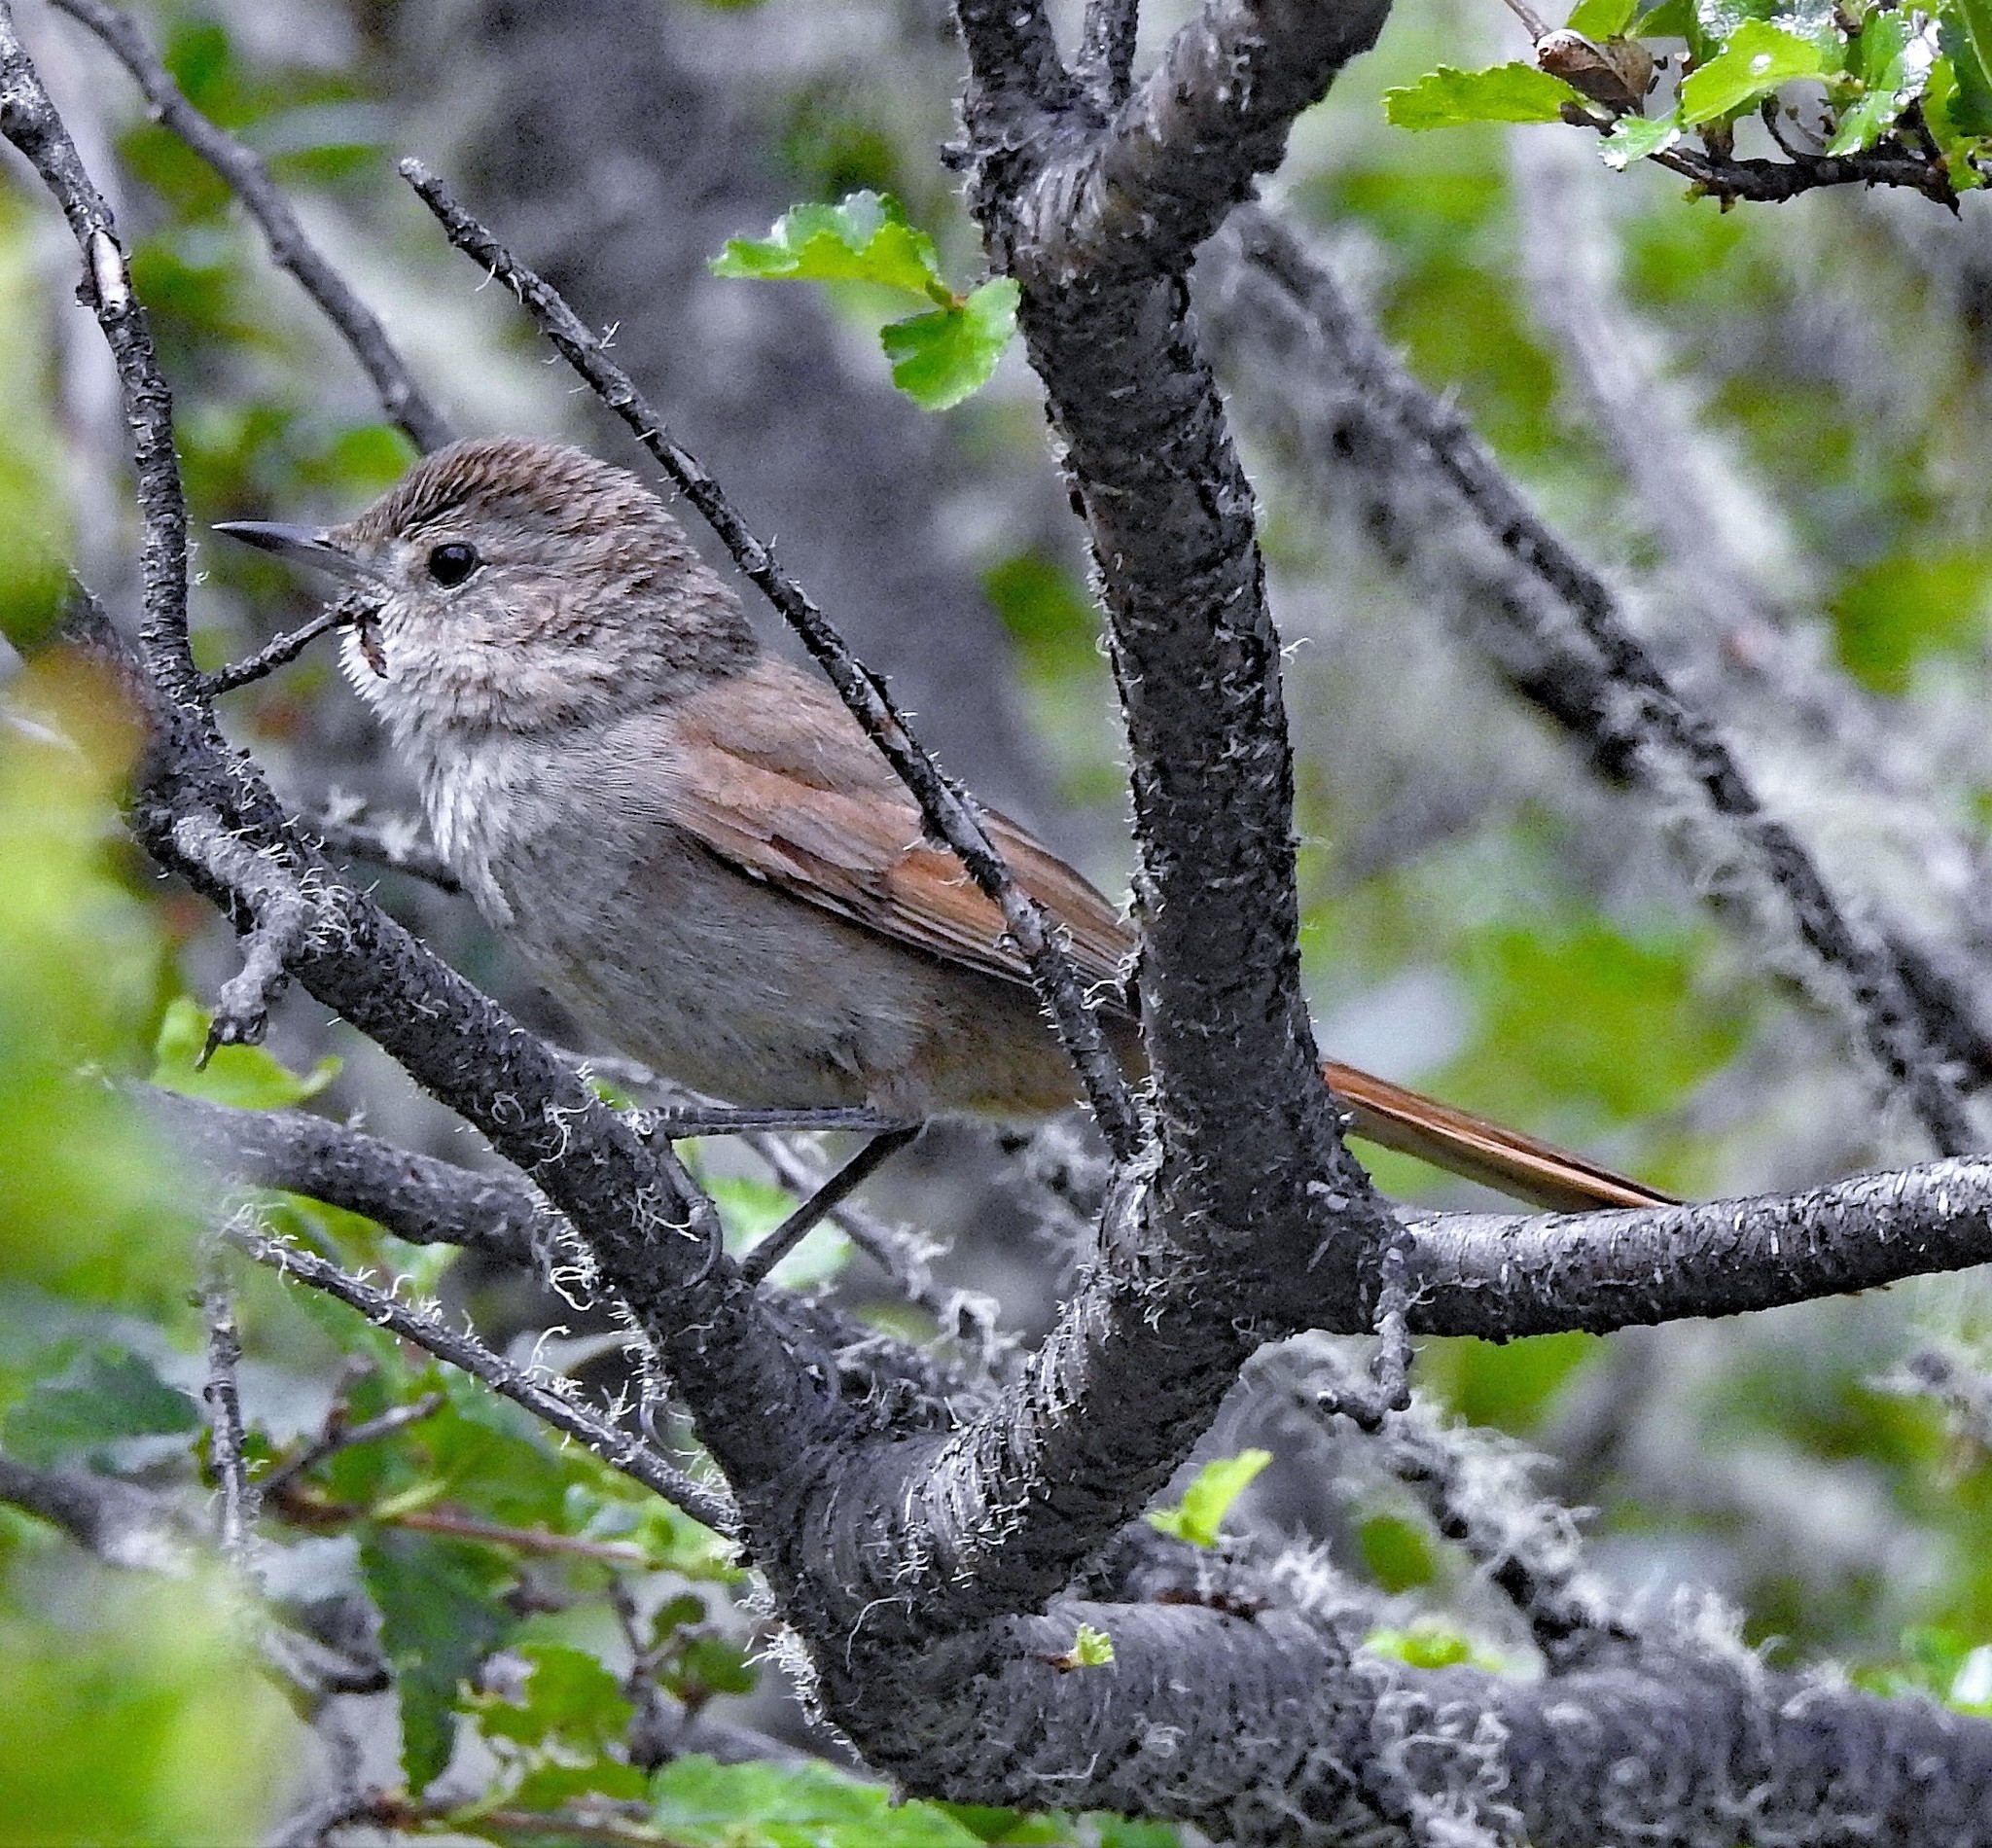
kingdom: Animalia
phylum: Chordata
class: Aves
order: Passeriformes
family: Furnariidae
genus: Asthenes
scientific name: Asthenes pyrrholeuca
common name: Sharp-billed canastero
